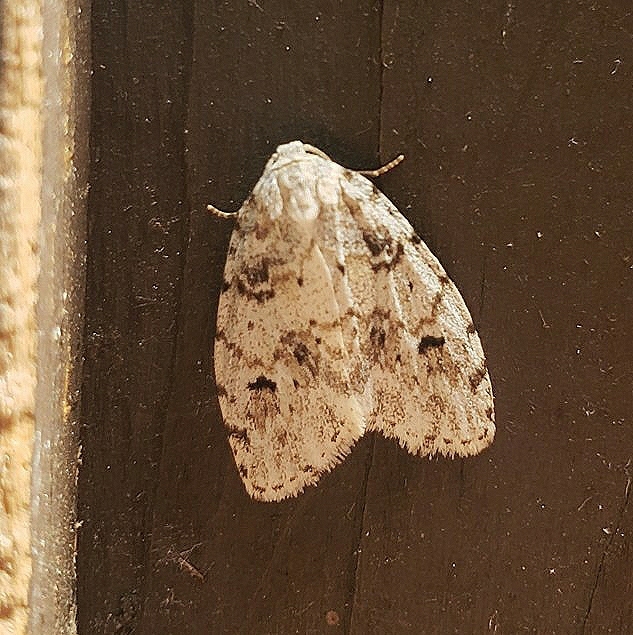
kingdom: Animalia
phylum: Arthropoda
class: Insecta
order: Lepidoptera
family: Erebidae
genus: Clemensia
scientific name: Clemensia albata
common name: Little white lichen moth
